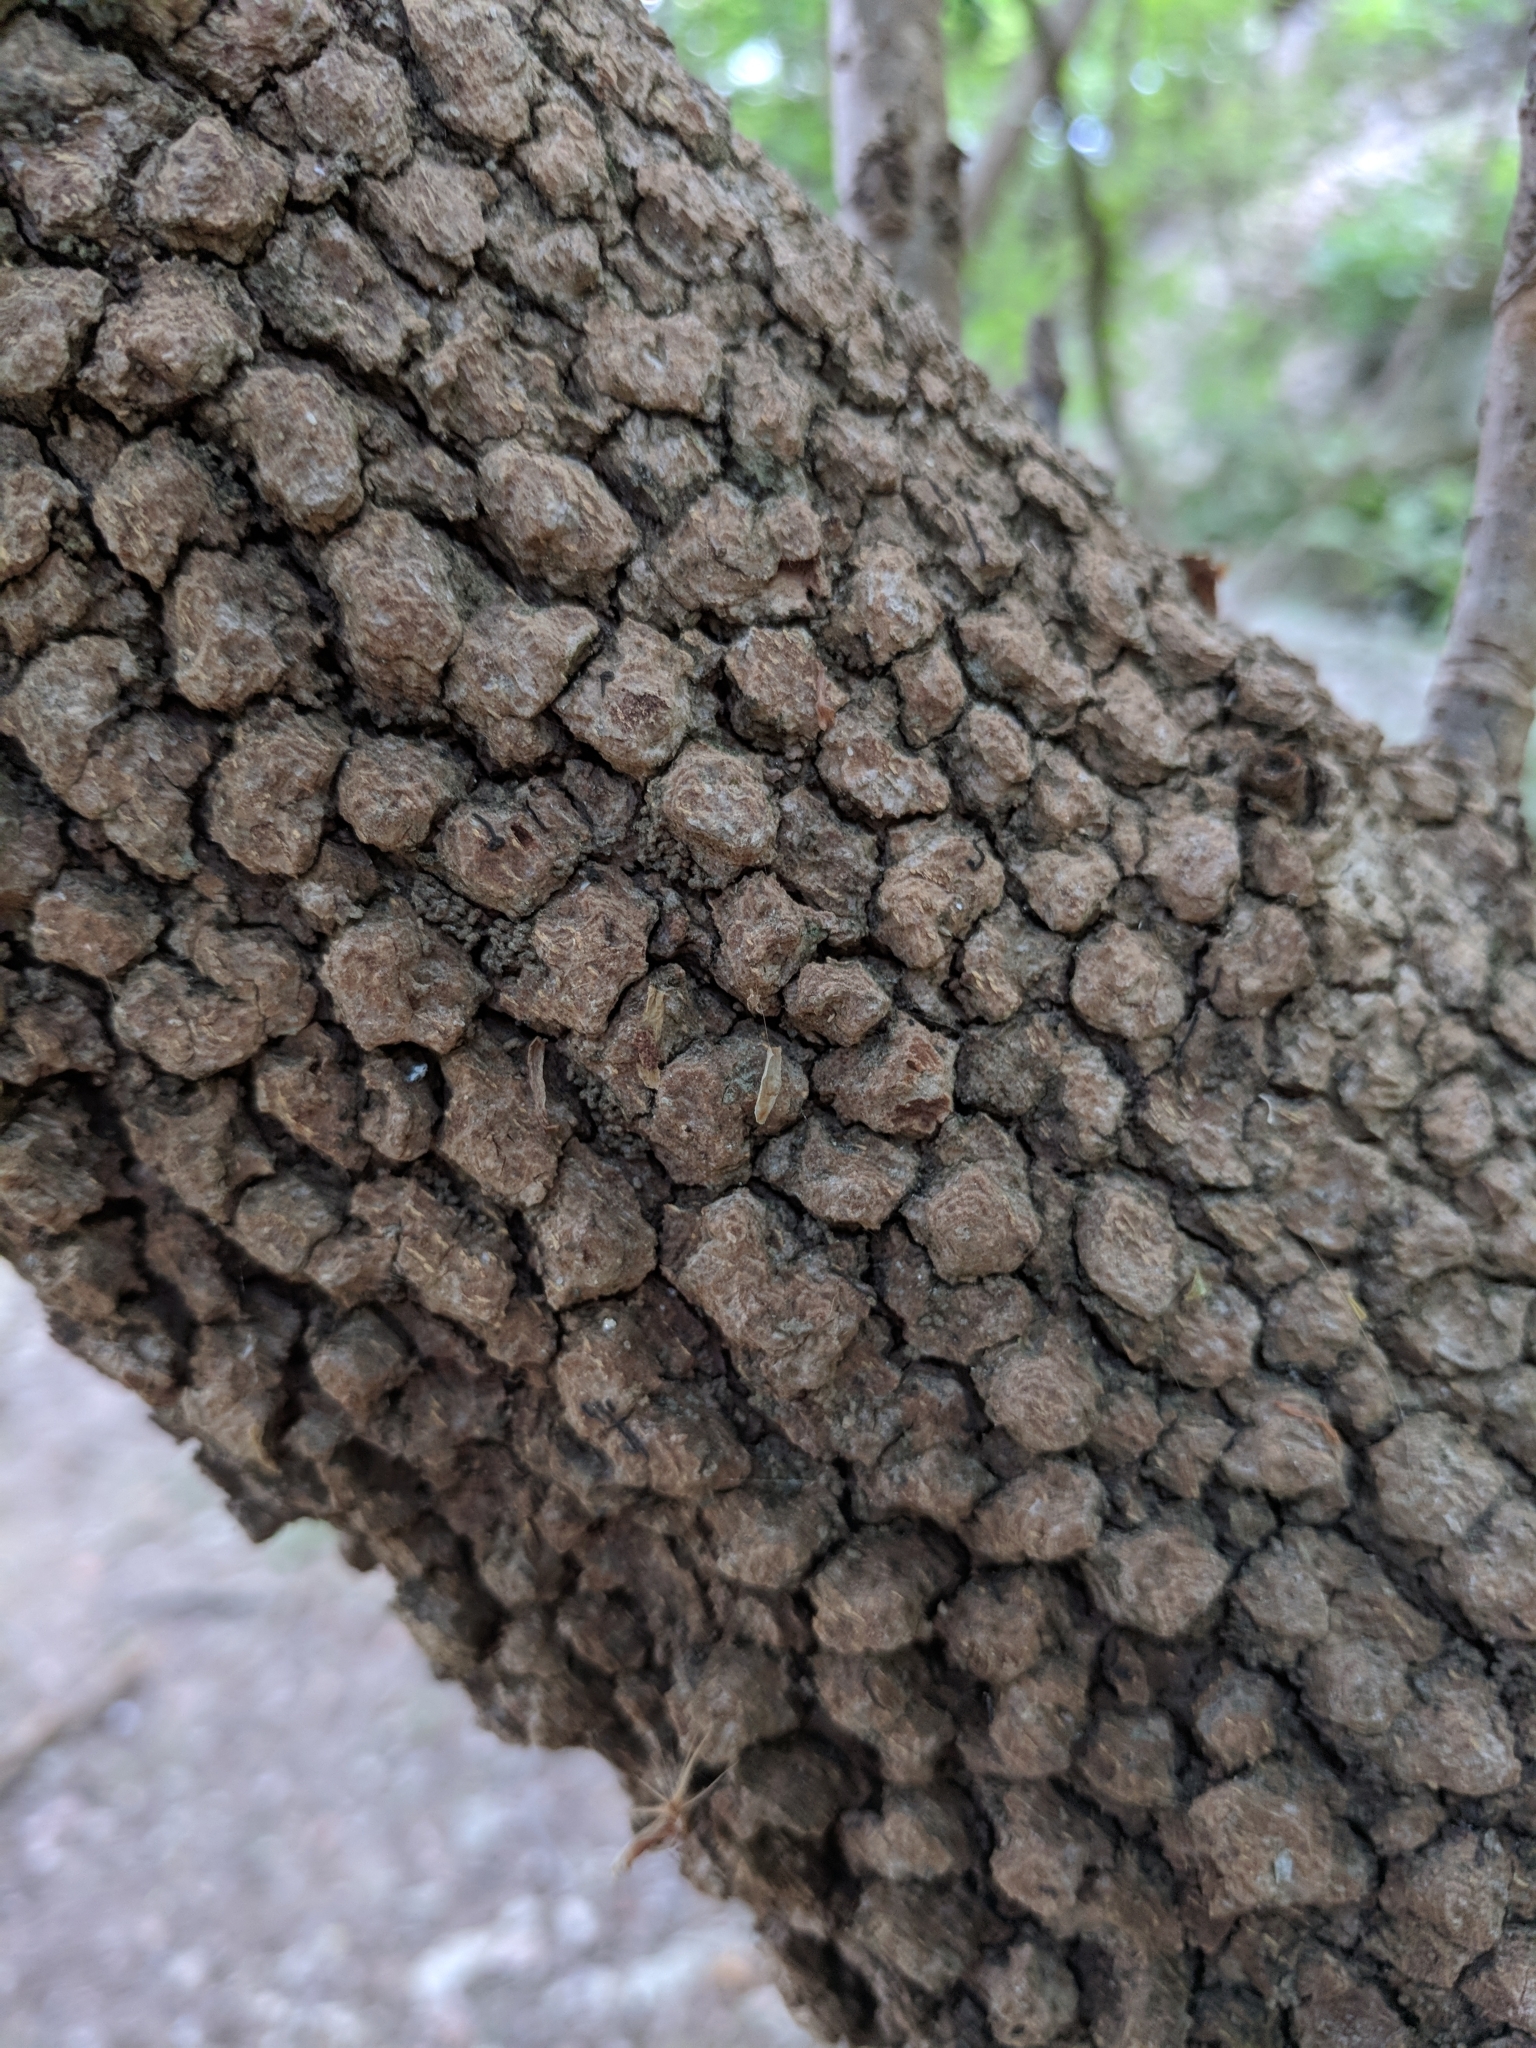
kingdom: Plantae
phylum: Tracheophyta
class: Magnoliopsida
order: Dipsacales
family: Viburnaceae
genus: Viburnum
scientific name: Viburnum rufidulum
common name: Blue haw
